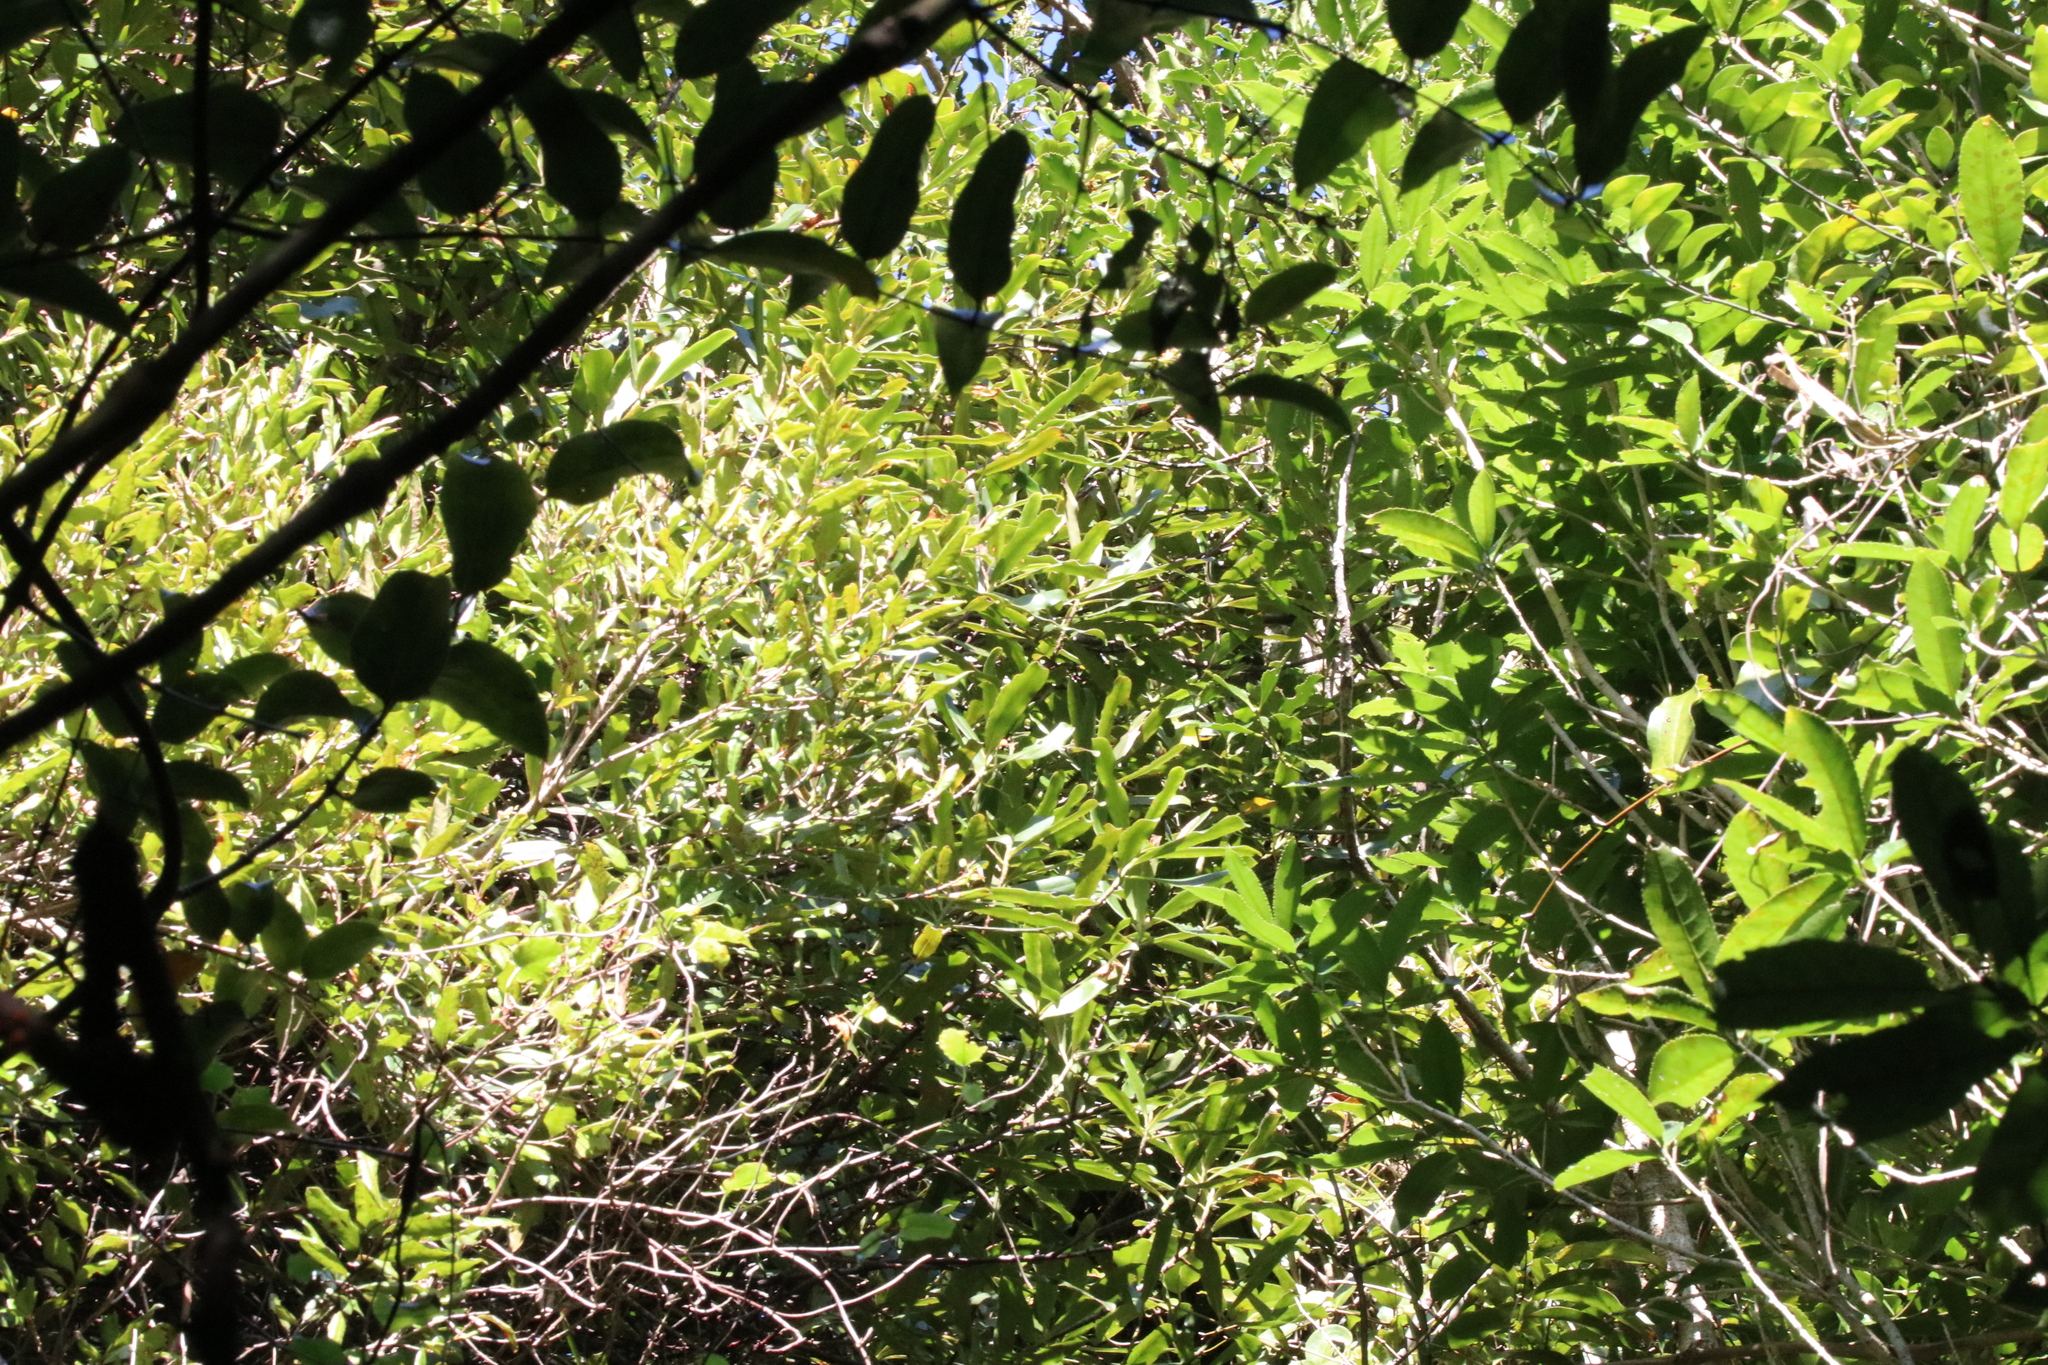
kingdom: Plantae
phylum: Tracheophyta
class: Magnoliopsida
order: Ericales
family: Primulaceae
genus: Myrsine
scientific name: Myrsine salicina
